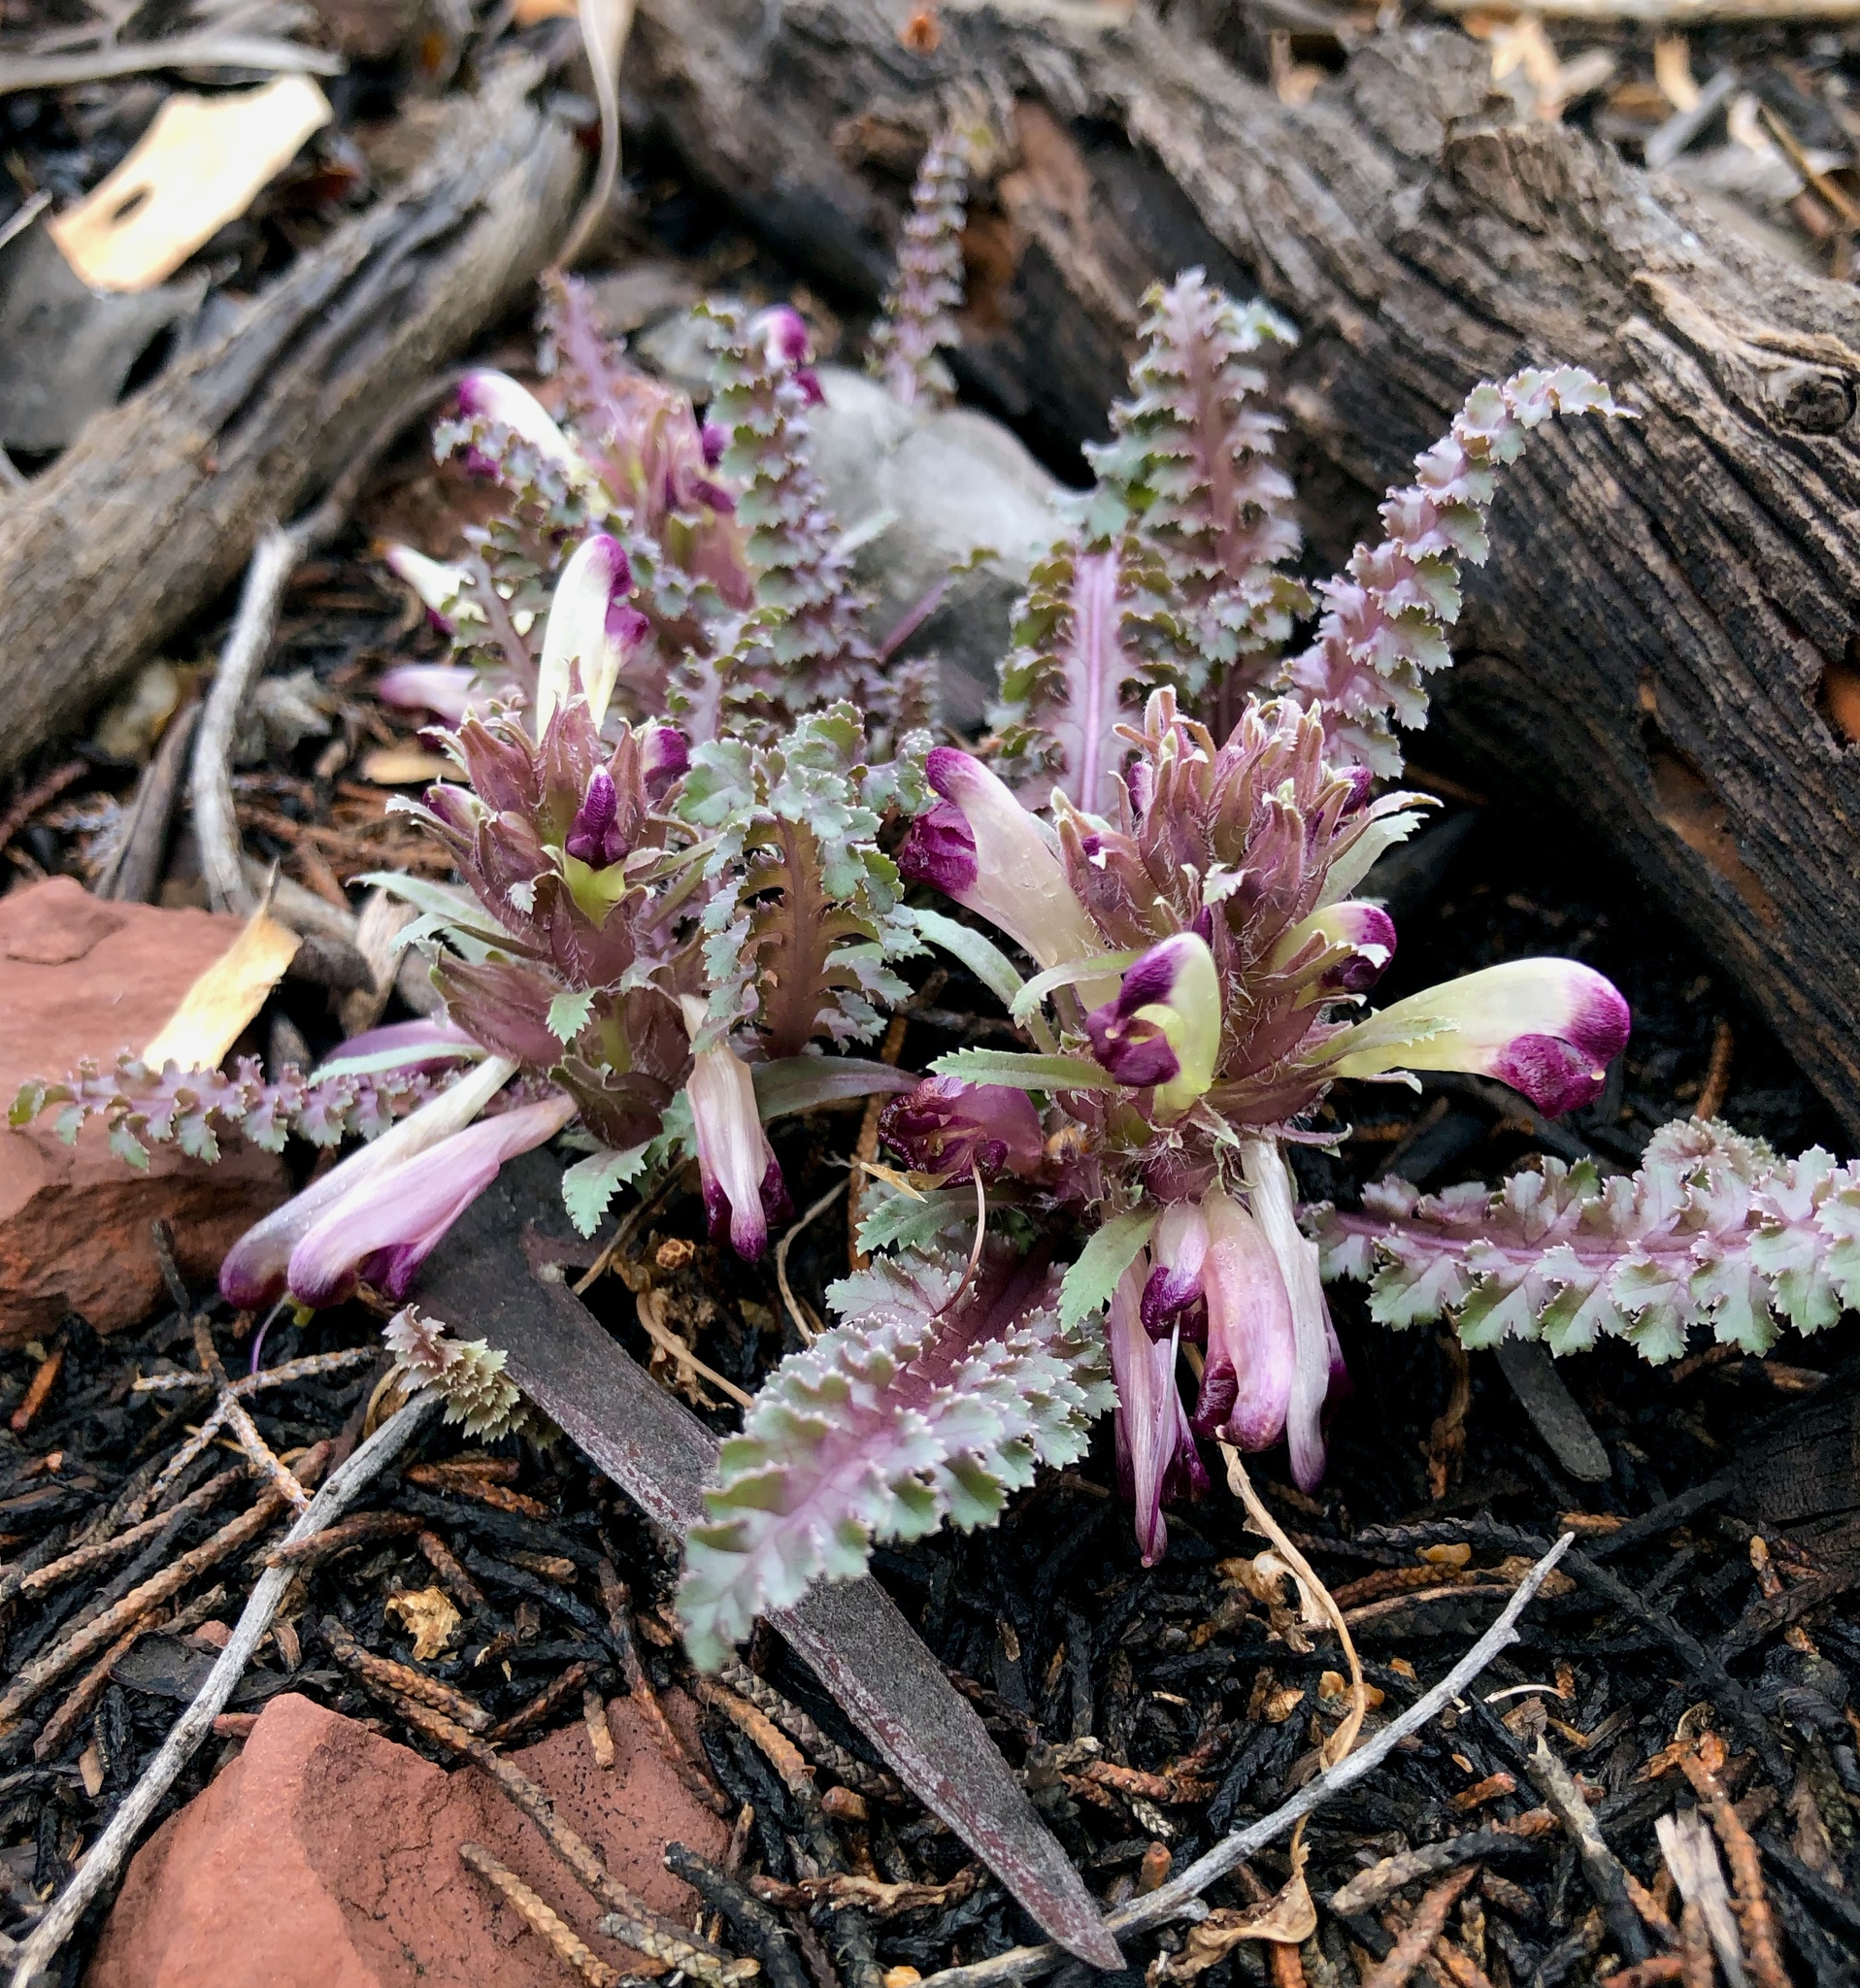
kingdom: Plantae
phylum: Tracheophyta
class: Magnoliopsida
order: Lamiales
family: Orobanchaceae
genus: Pedicularis
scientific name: Pedicularis centranthera
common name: Dwarf lousewort
